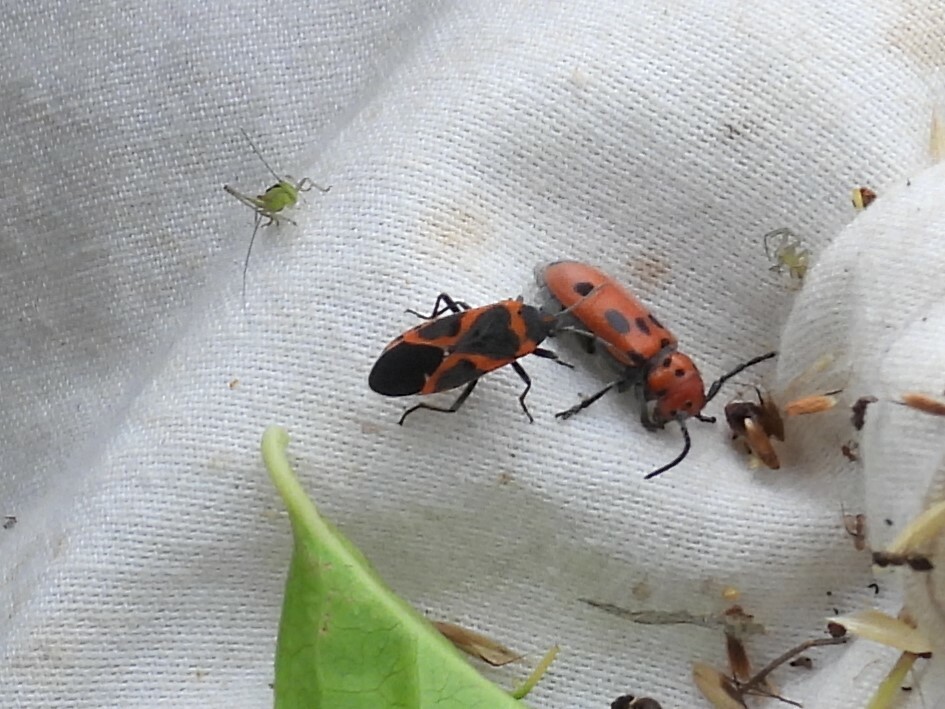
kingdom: Animalia
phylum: Arthropoda
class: Insecta
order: Hemiptera
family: Lygaeidae
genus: Lygaeus
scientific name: Lygaeus kalmii
